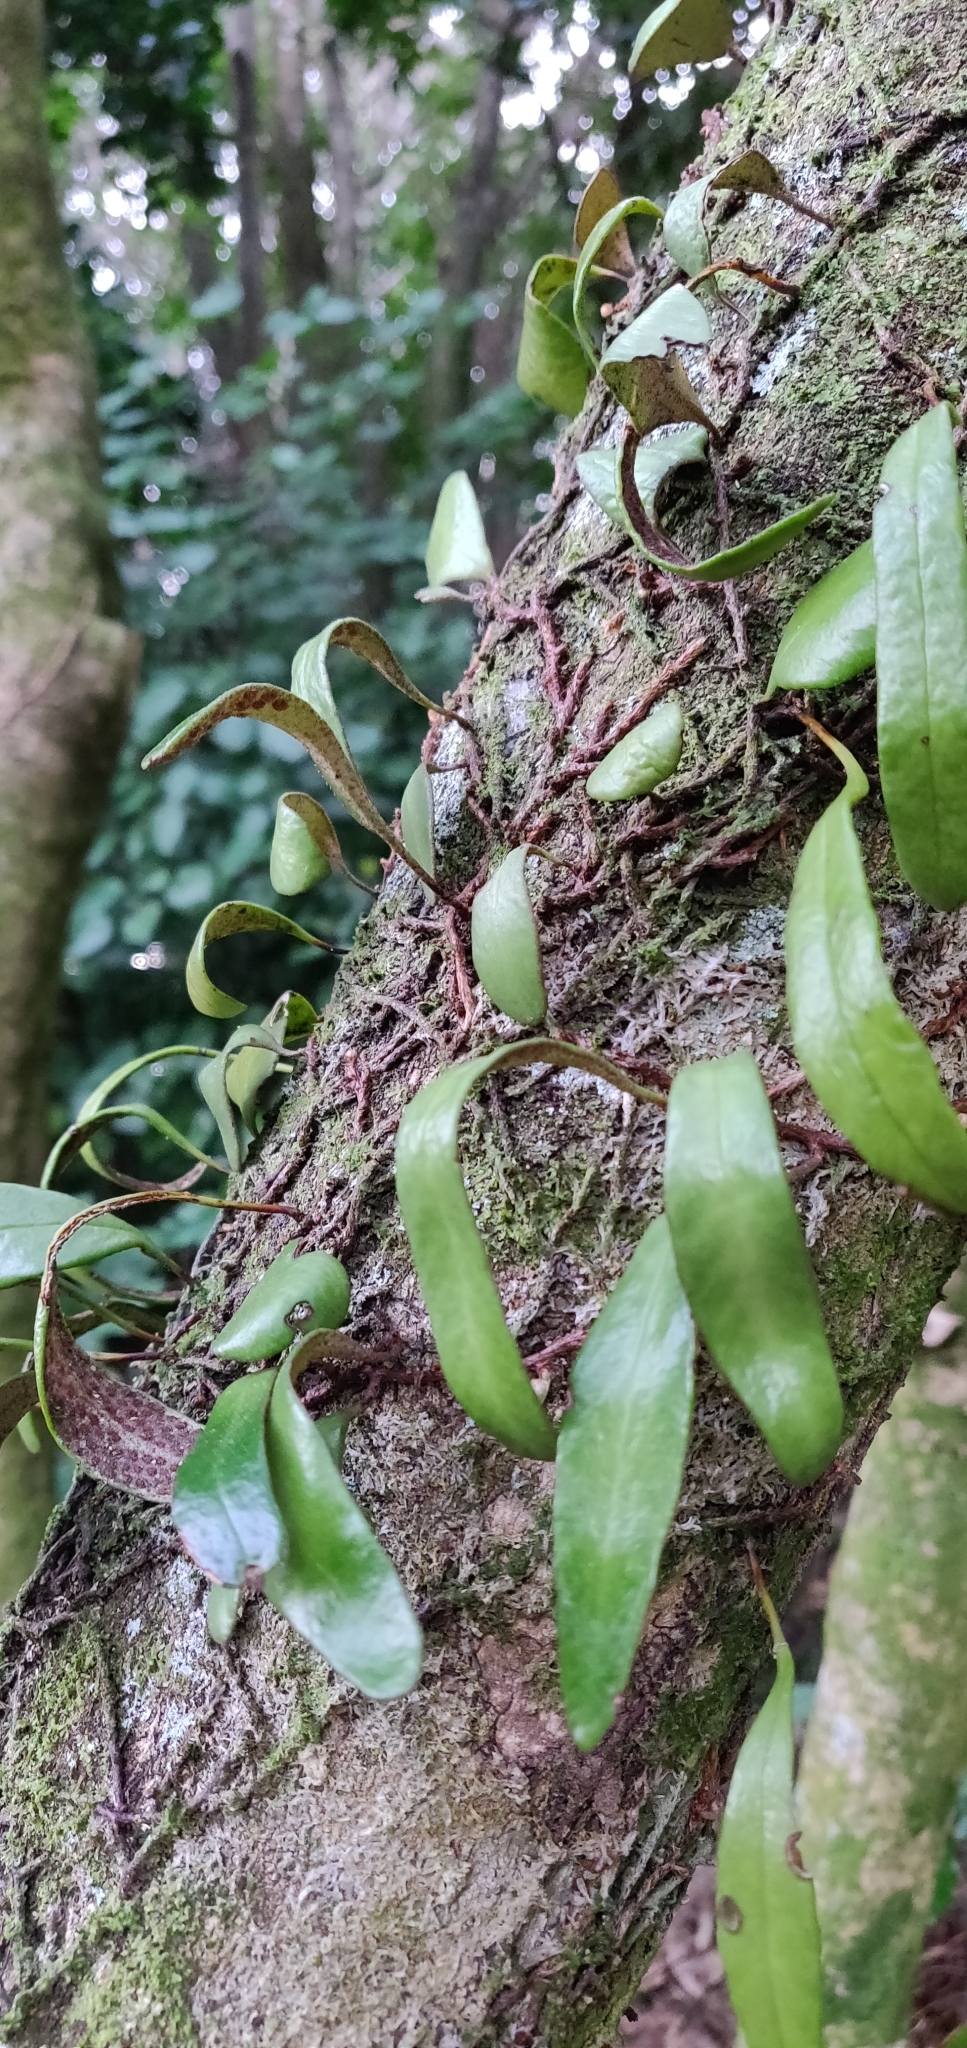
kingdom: Plantae
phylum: Tracheophyta
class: Polypodiopsida
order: Polypodiales
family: Polypodiaceae
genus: Pyrrosia
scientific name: Pyrrosia eleagnifolia
